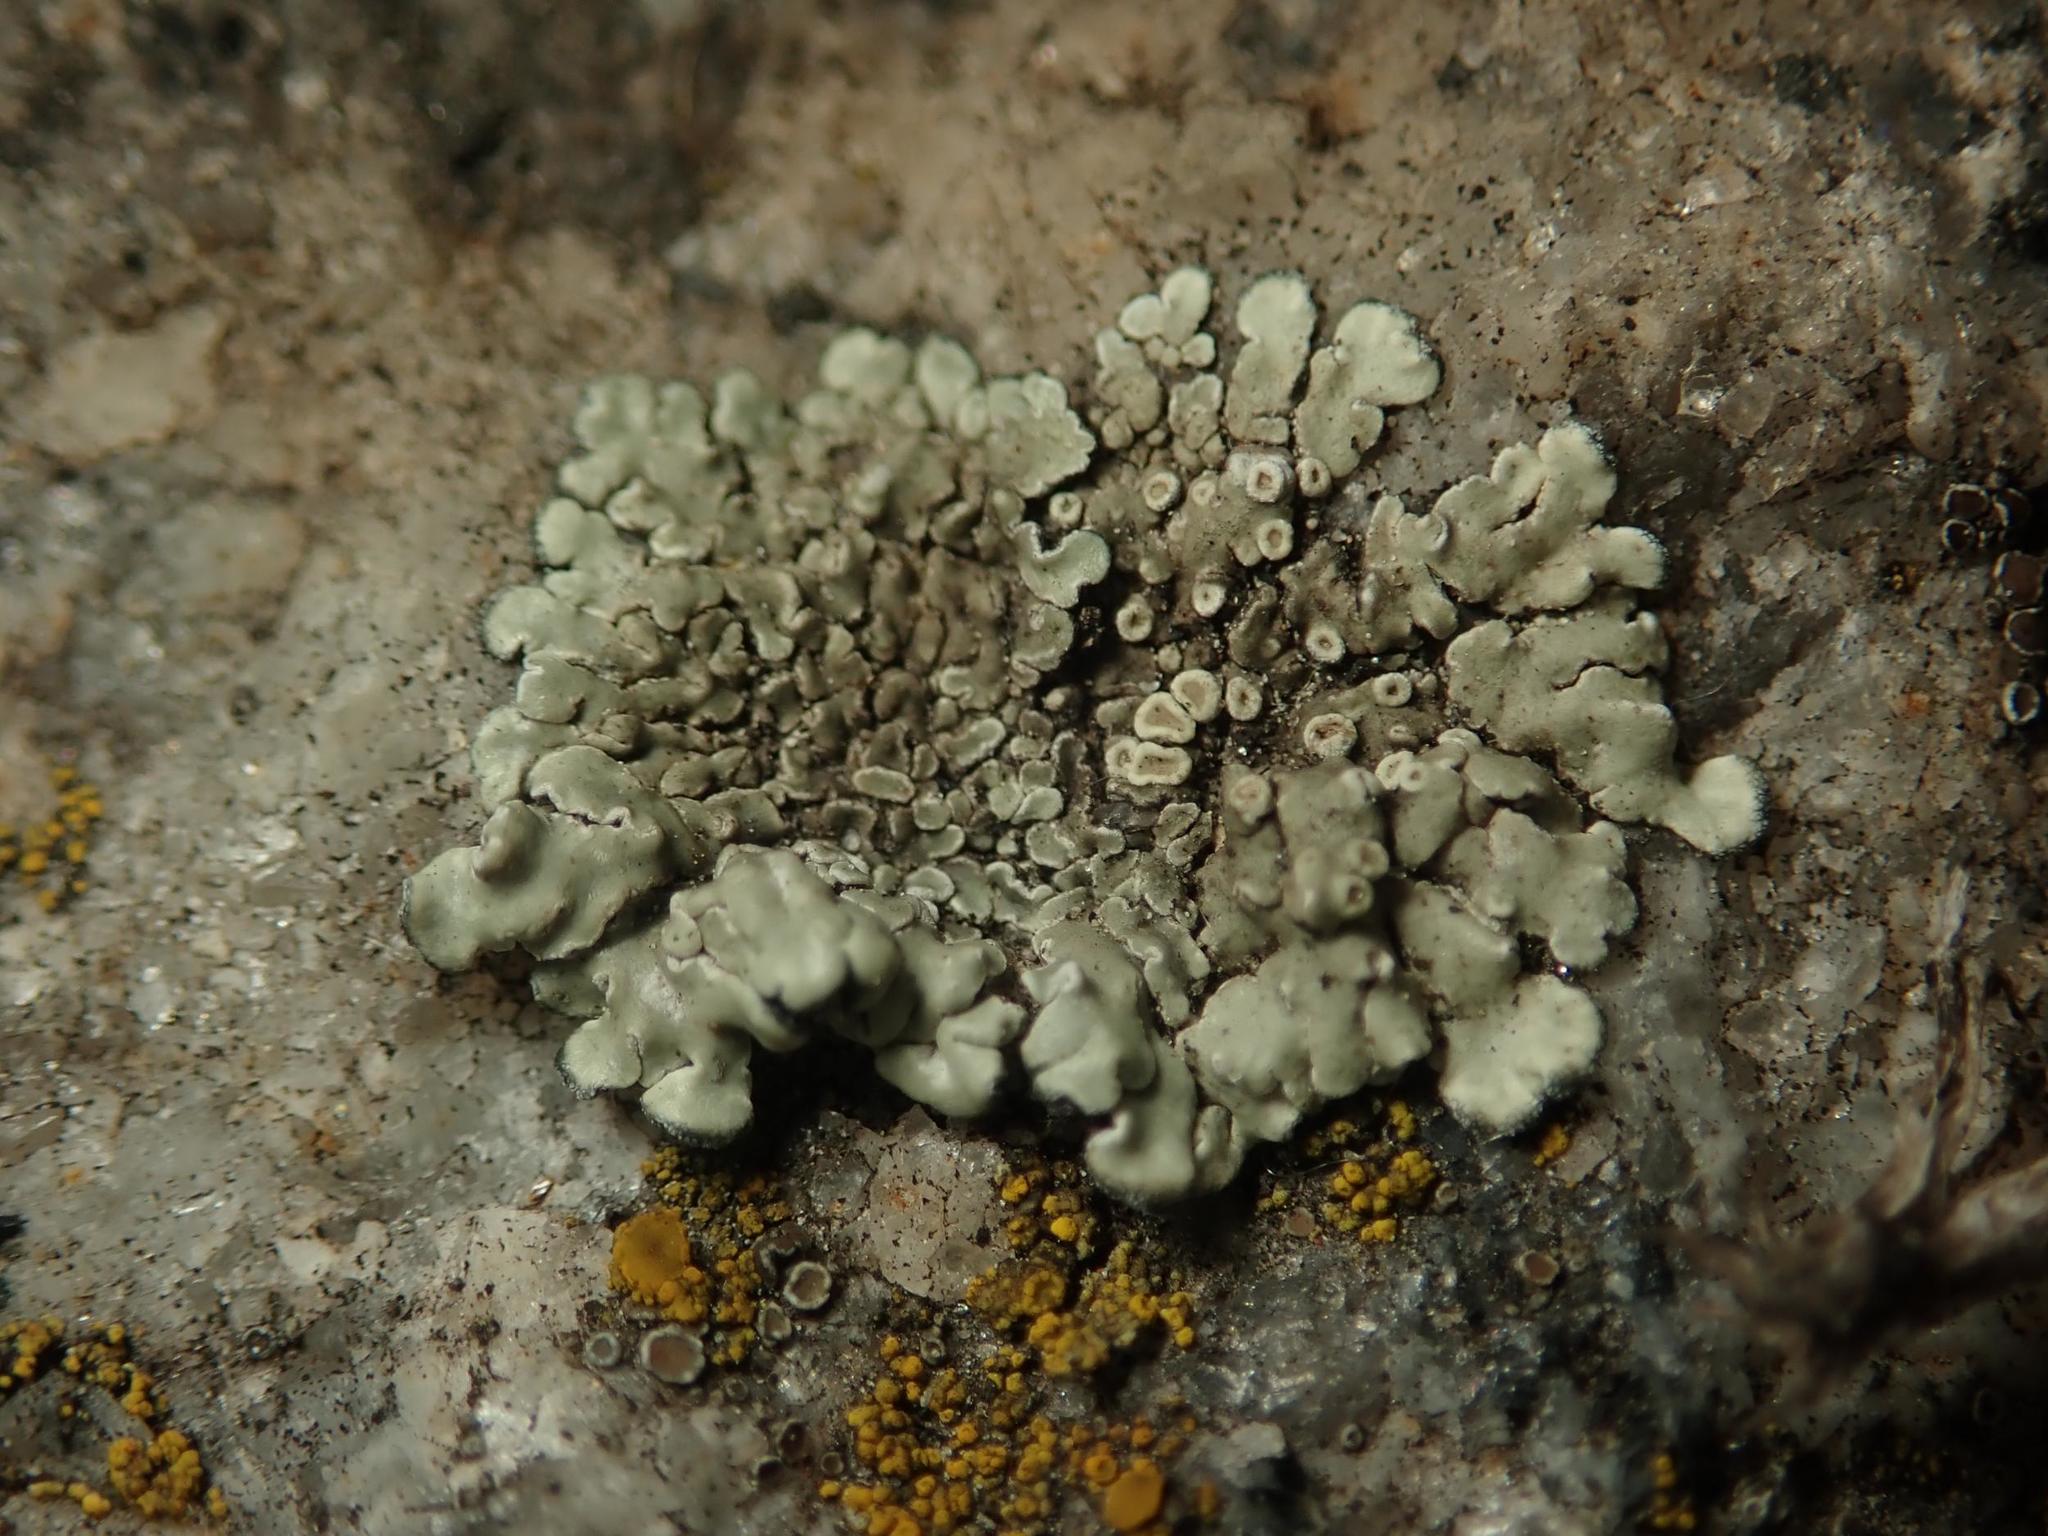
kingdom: Fungi
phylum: Ascomycota
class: Lecanoromycetes
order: Lecanorales
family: Lecanoraceae
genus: Protoparmeliopsis
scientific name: Protoparmeliopsis muralis
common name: Stonewall rim lichen
